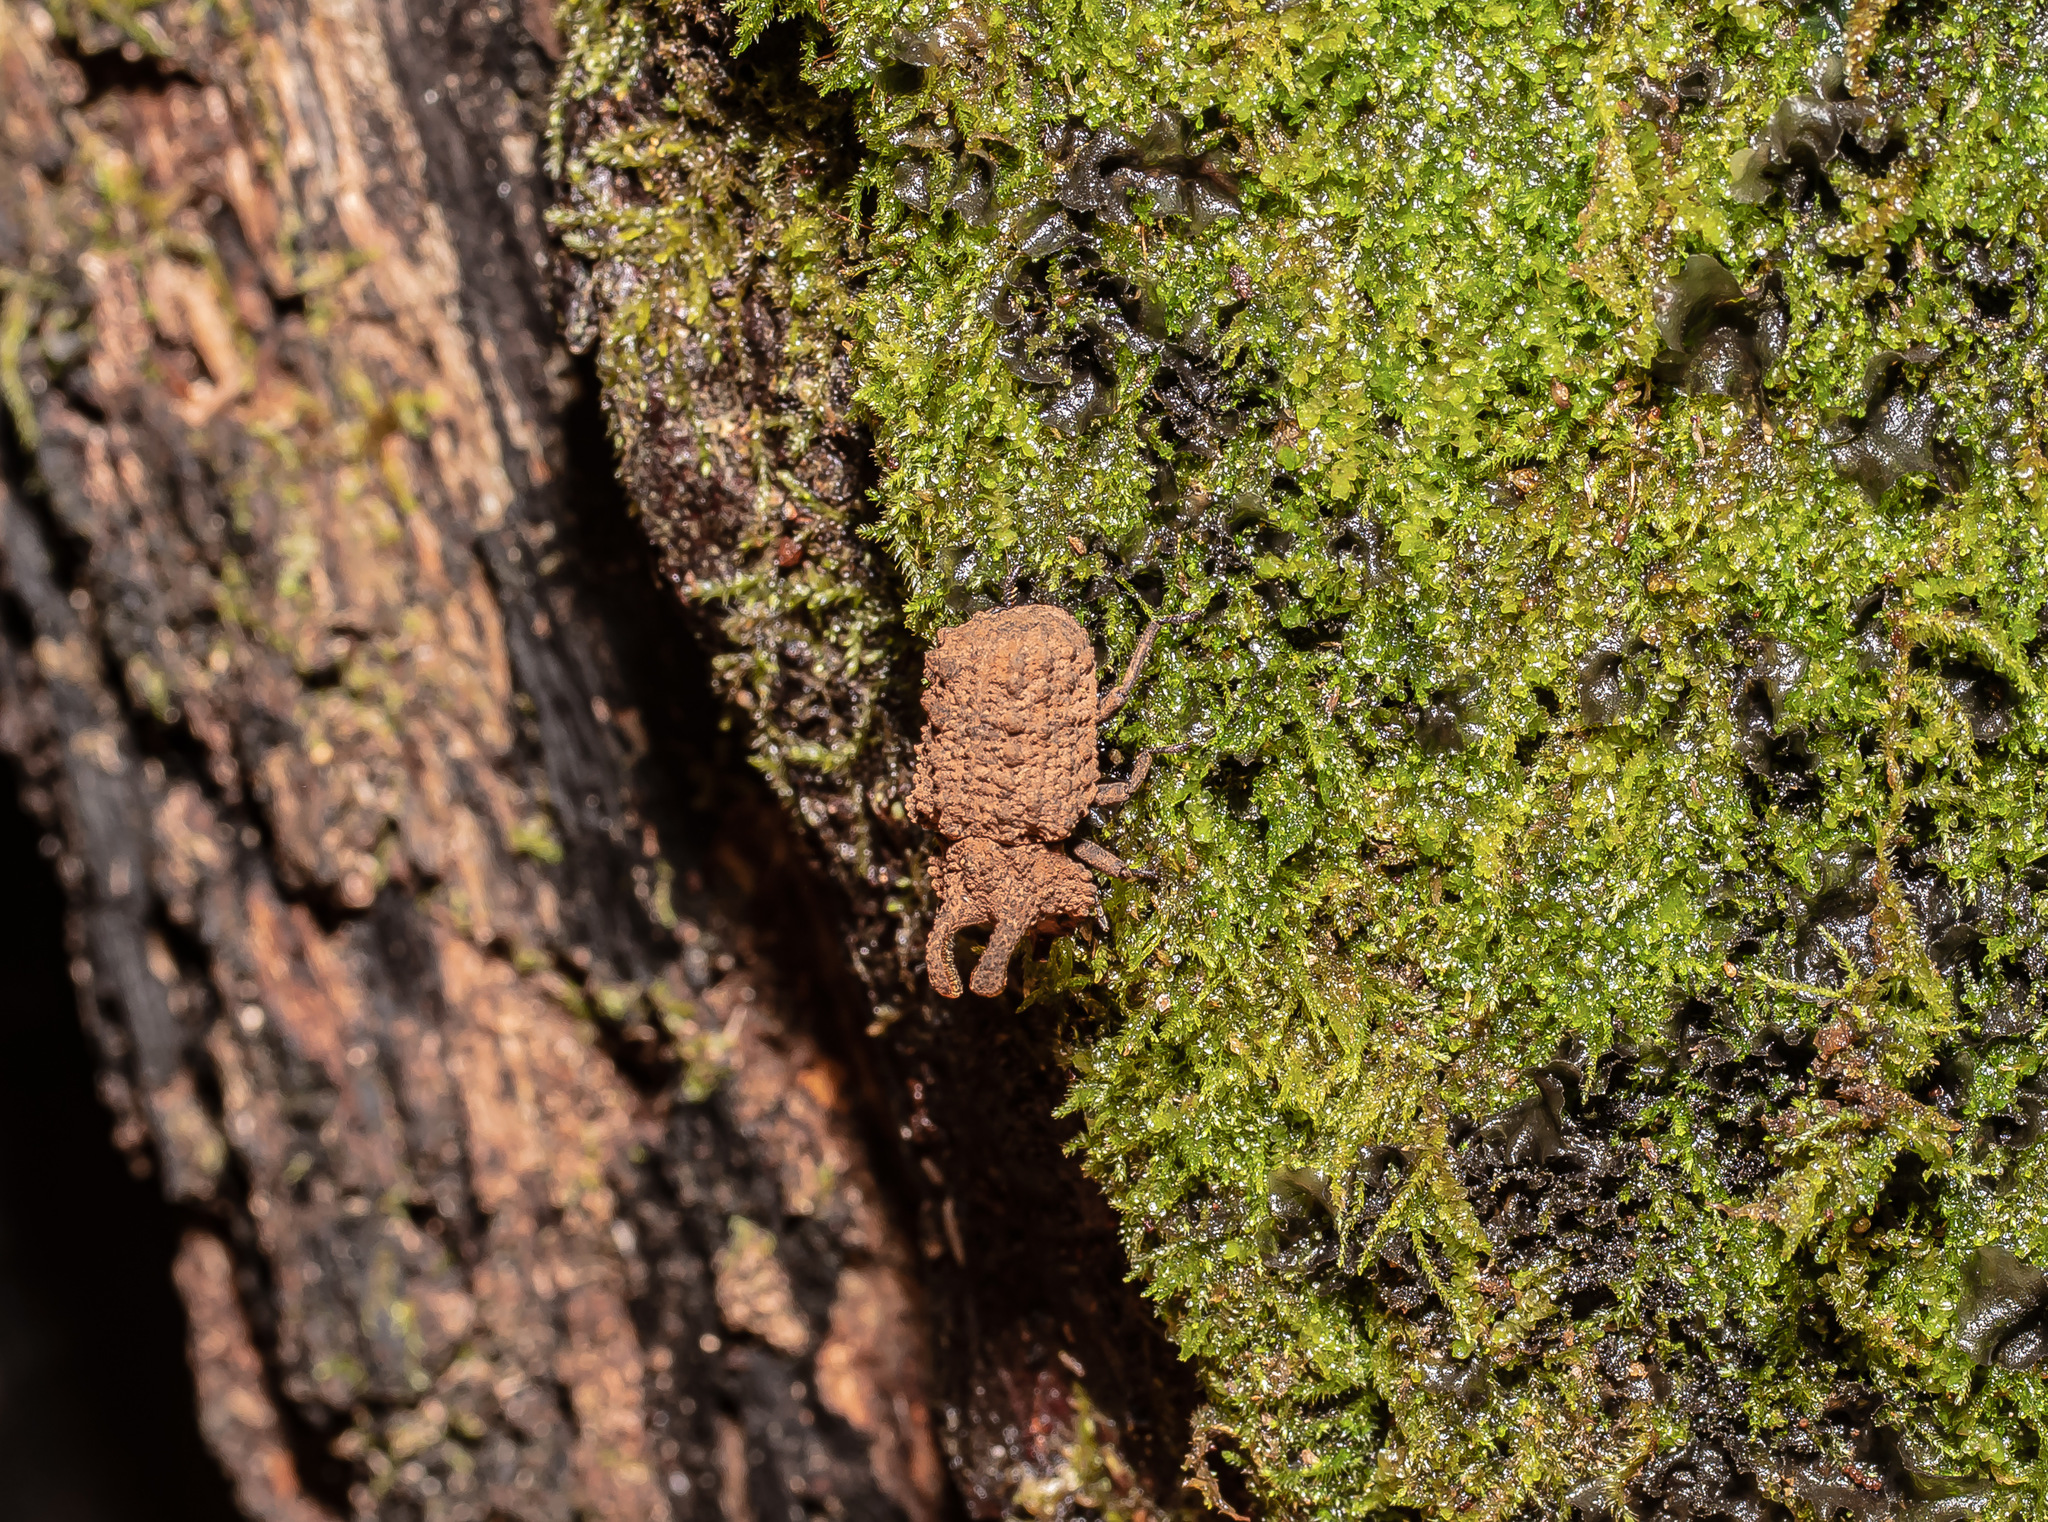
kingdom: Animalia
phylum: Arthropoda
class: Insecta
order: Coleoptera
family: Tenebrionidae
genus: Gnatocerus
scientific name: Gnatocerus cornutus
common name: Broad-horned flour beetle
